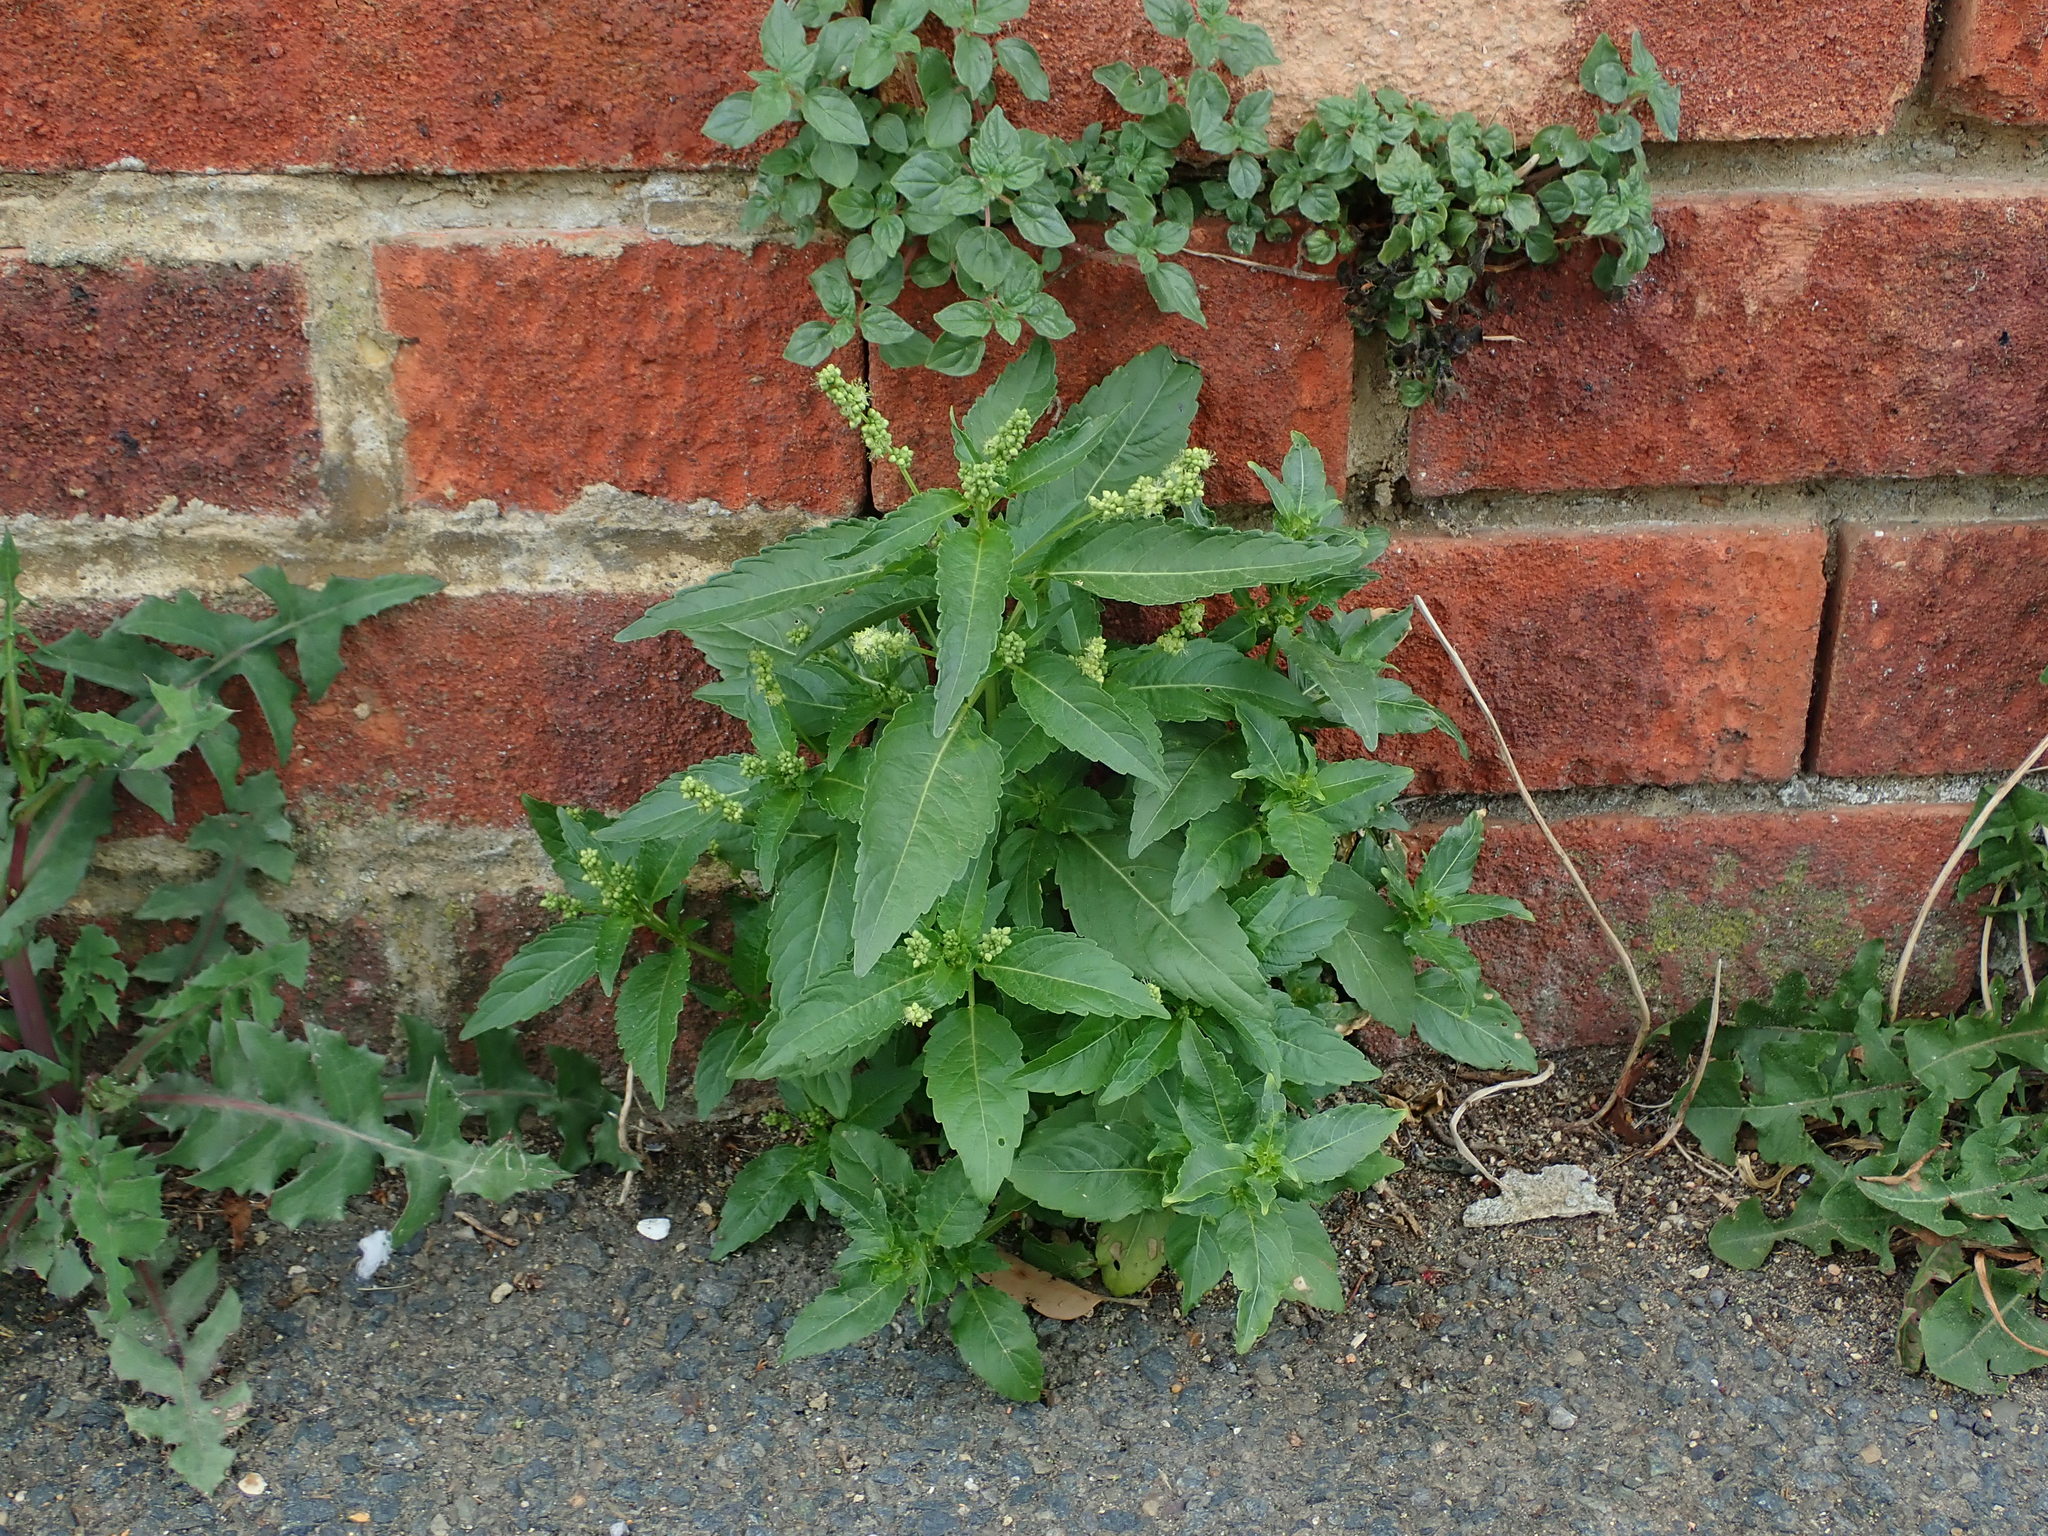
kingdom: Plantae
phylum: Tracheophyta
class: Magnoliopsida
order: Malpighiales
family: Euphorbiaceae
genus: Mercurialis
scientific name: Mercurialis annua
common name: Annual mercury
